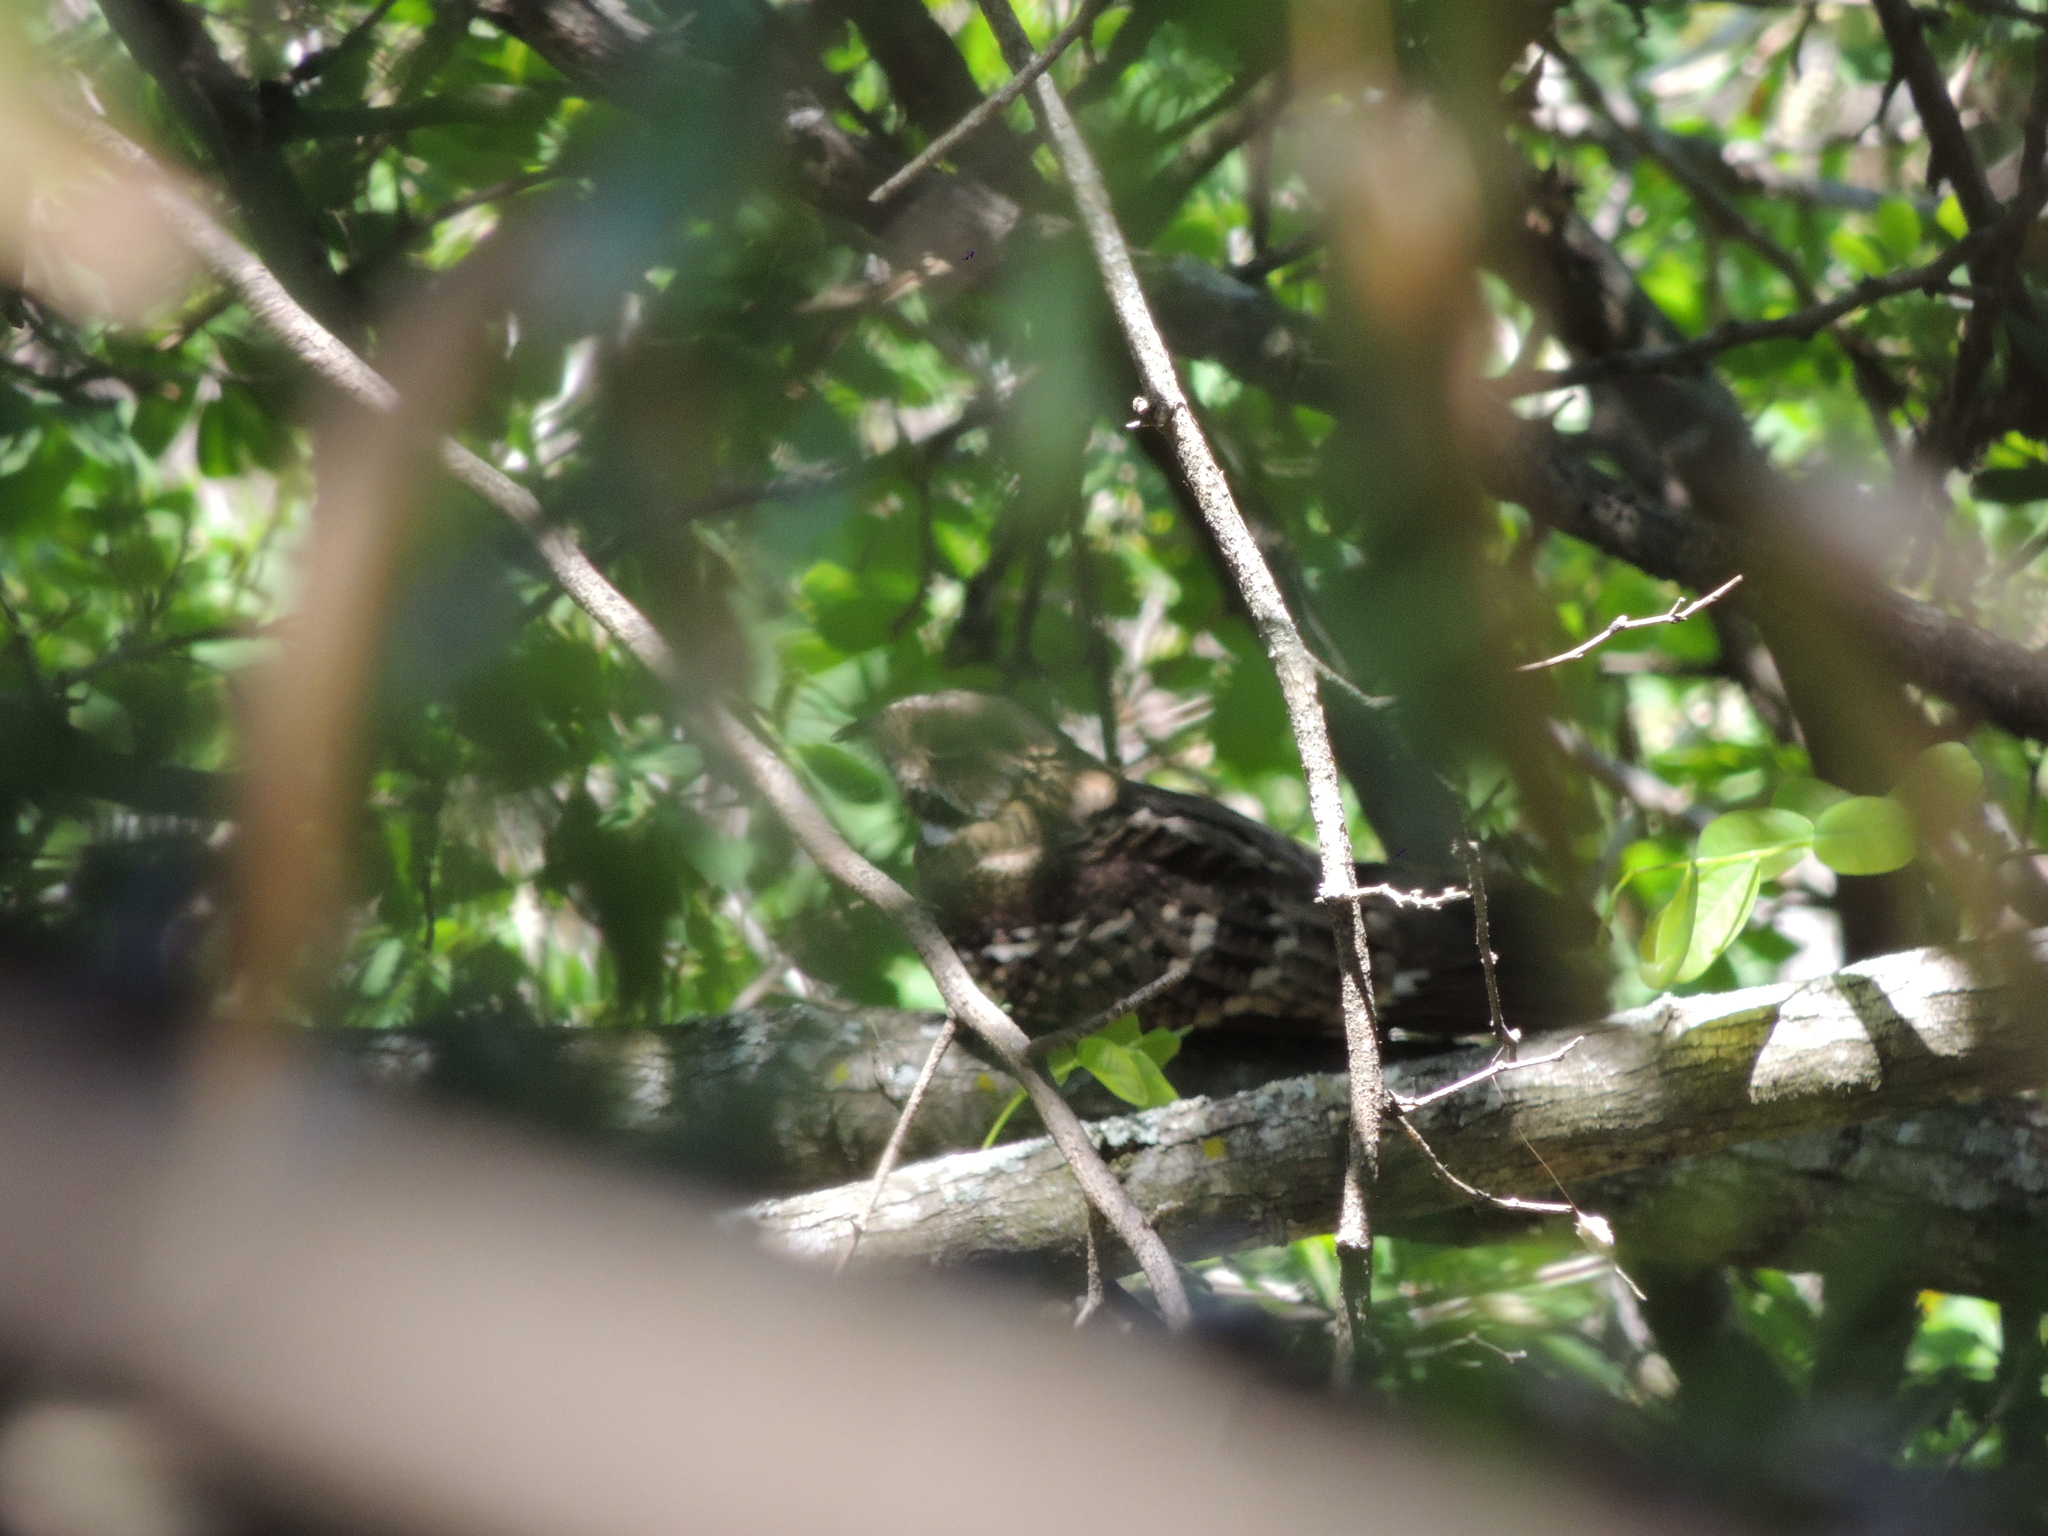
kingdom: Animalia
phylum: Chordata
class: Aves
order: Caprimulgiformes
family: Caprimulgidae
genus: Setopagis
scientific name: Setopagis parvula
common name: Little nightjar
